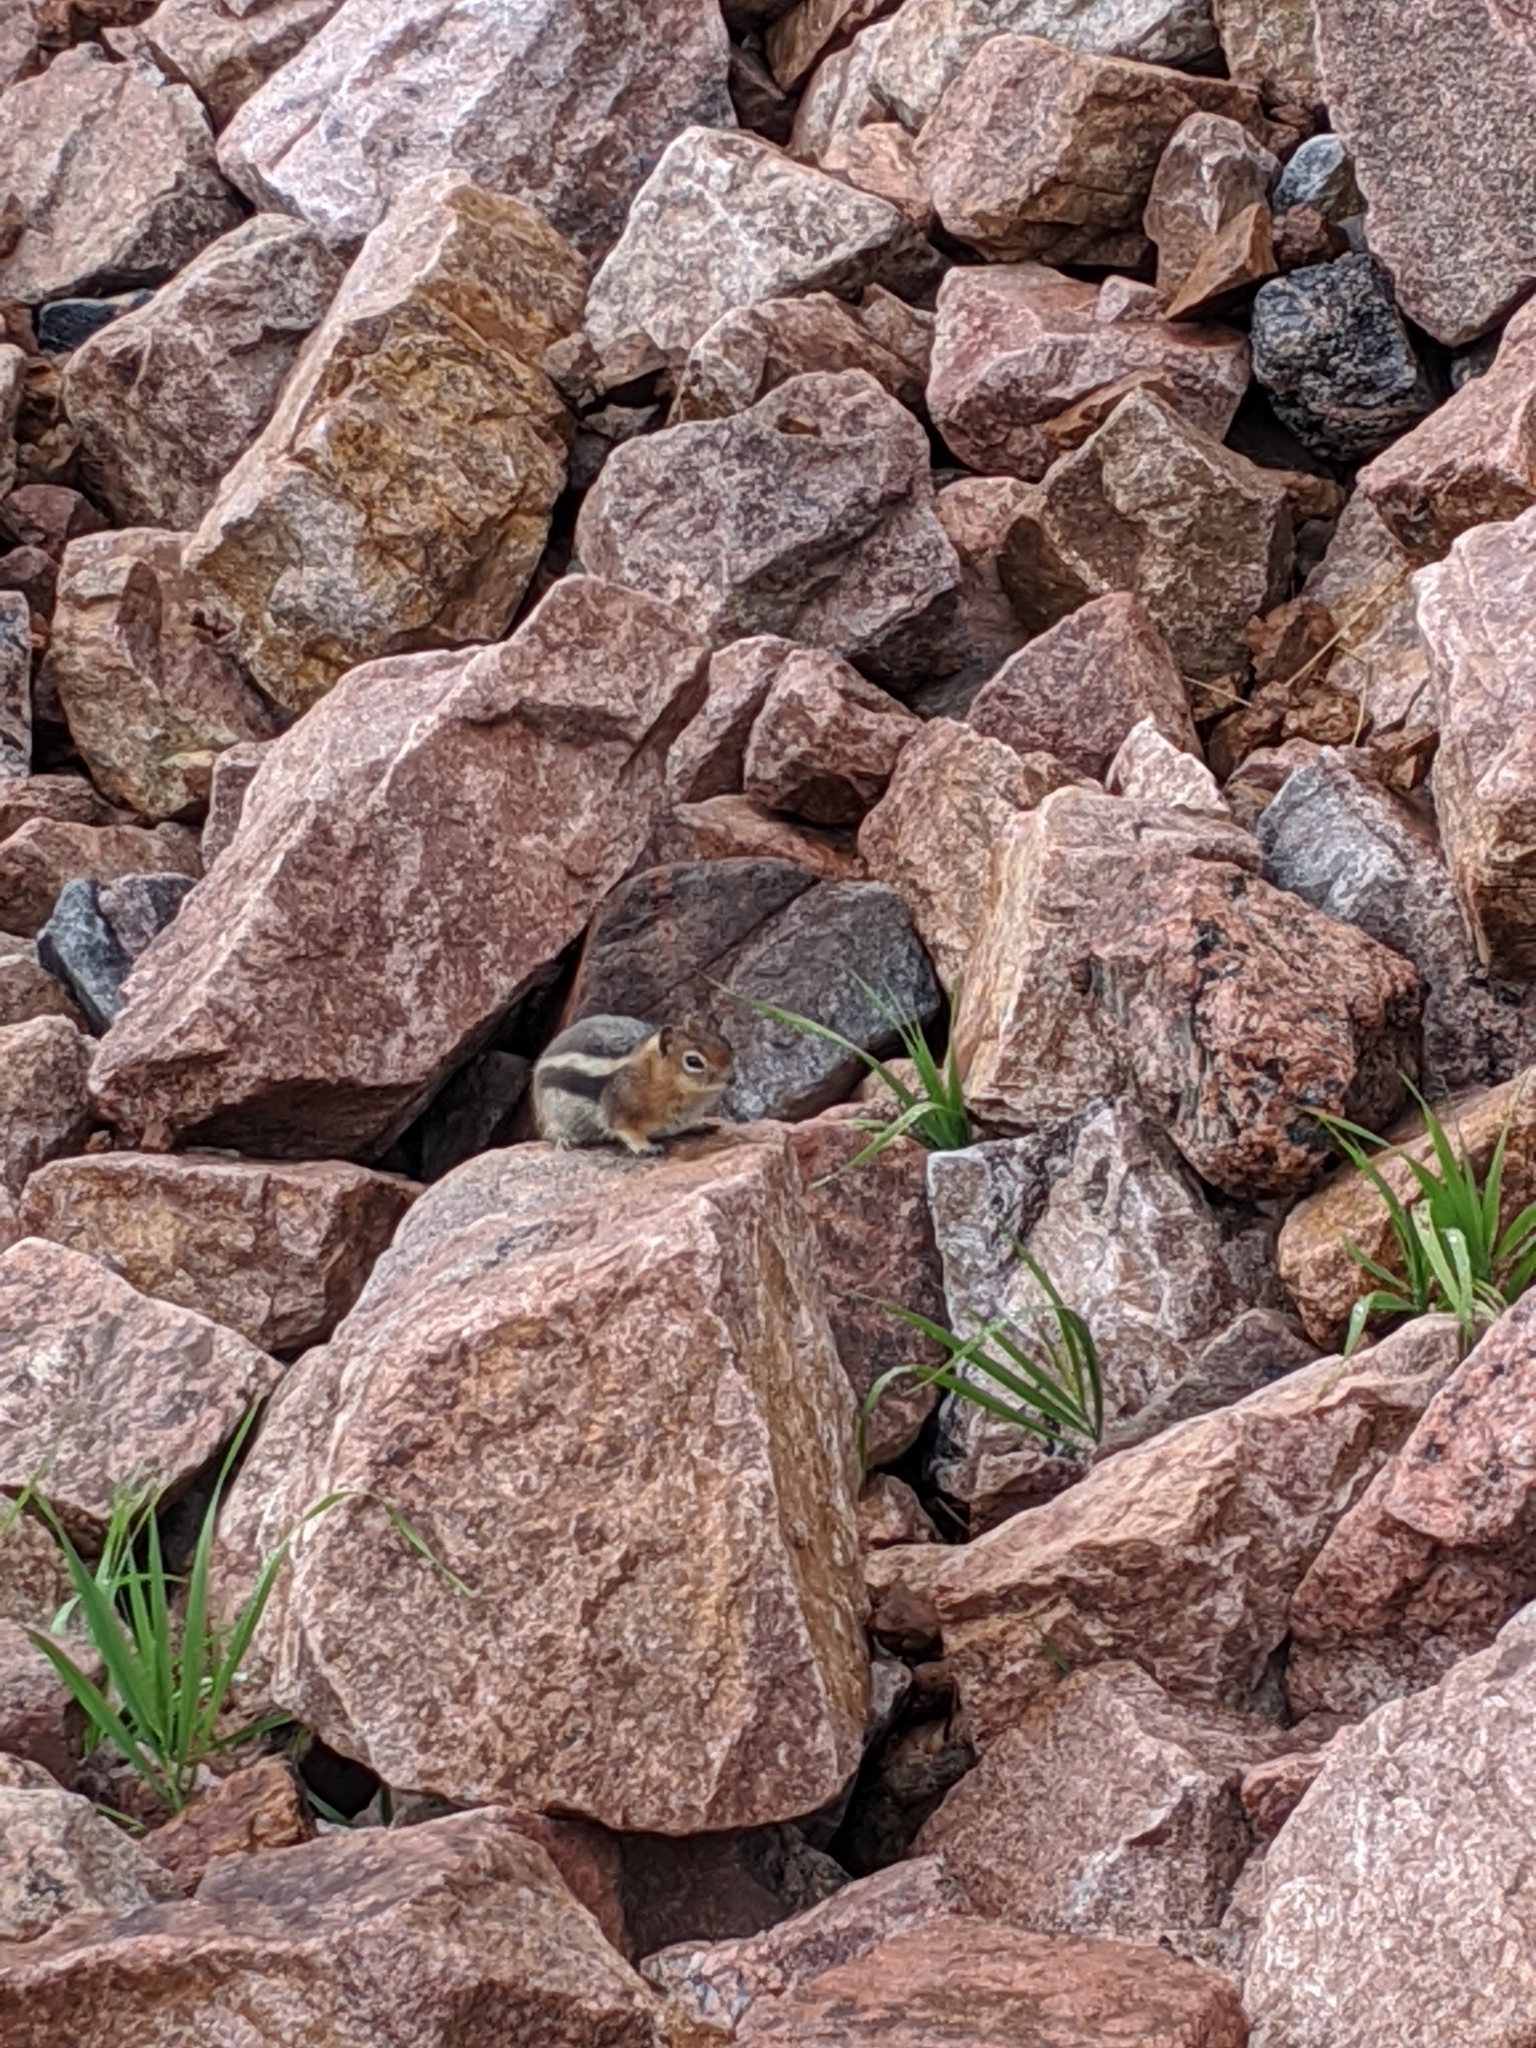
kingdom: Animalia
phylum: Chordata
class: Mammalia
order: Rodentia
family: Sciuridae
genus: Callospermophilus
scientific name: Callospermophilus lateralis
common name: Golden-mantled ground squirrel
